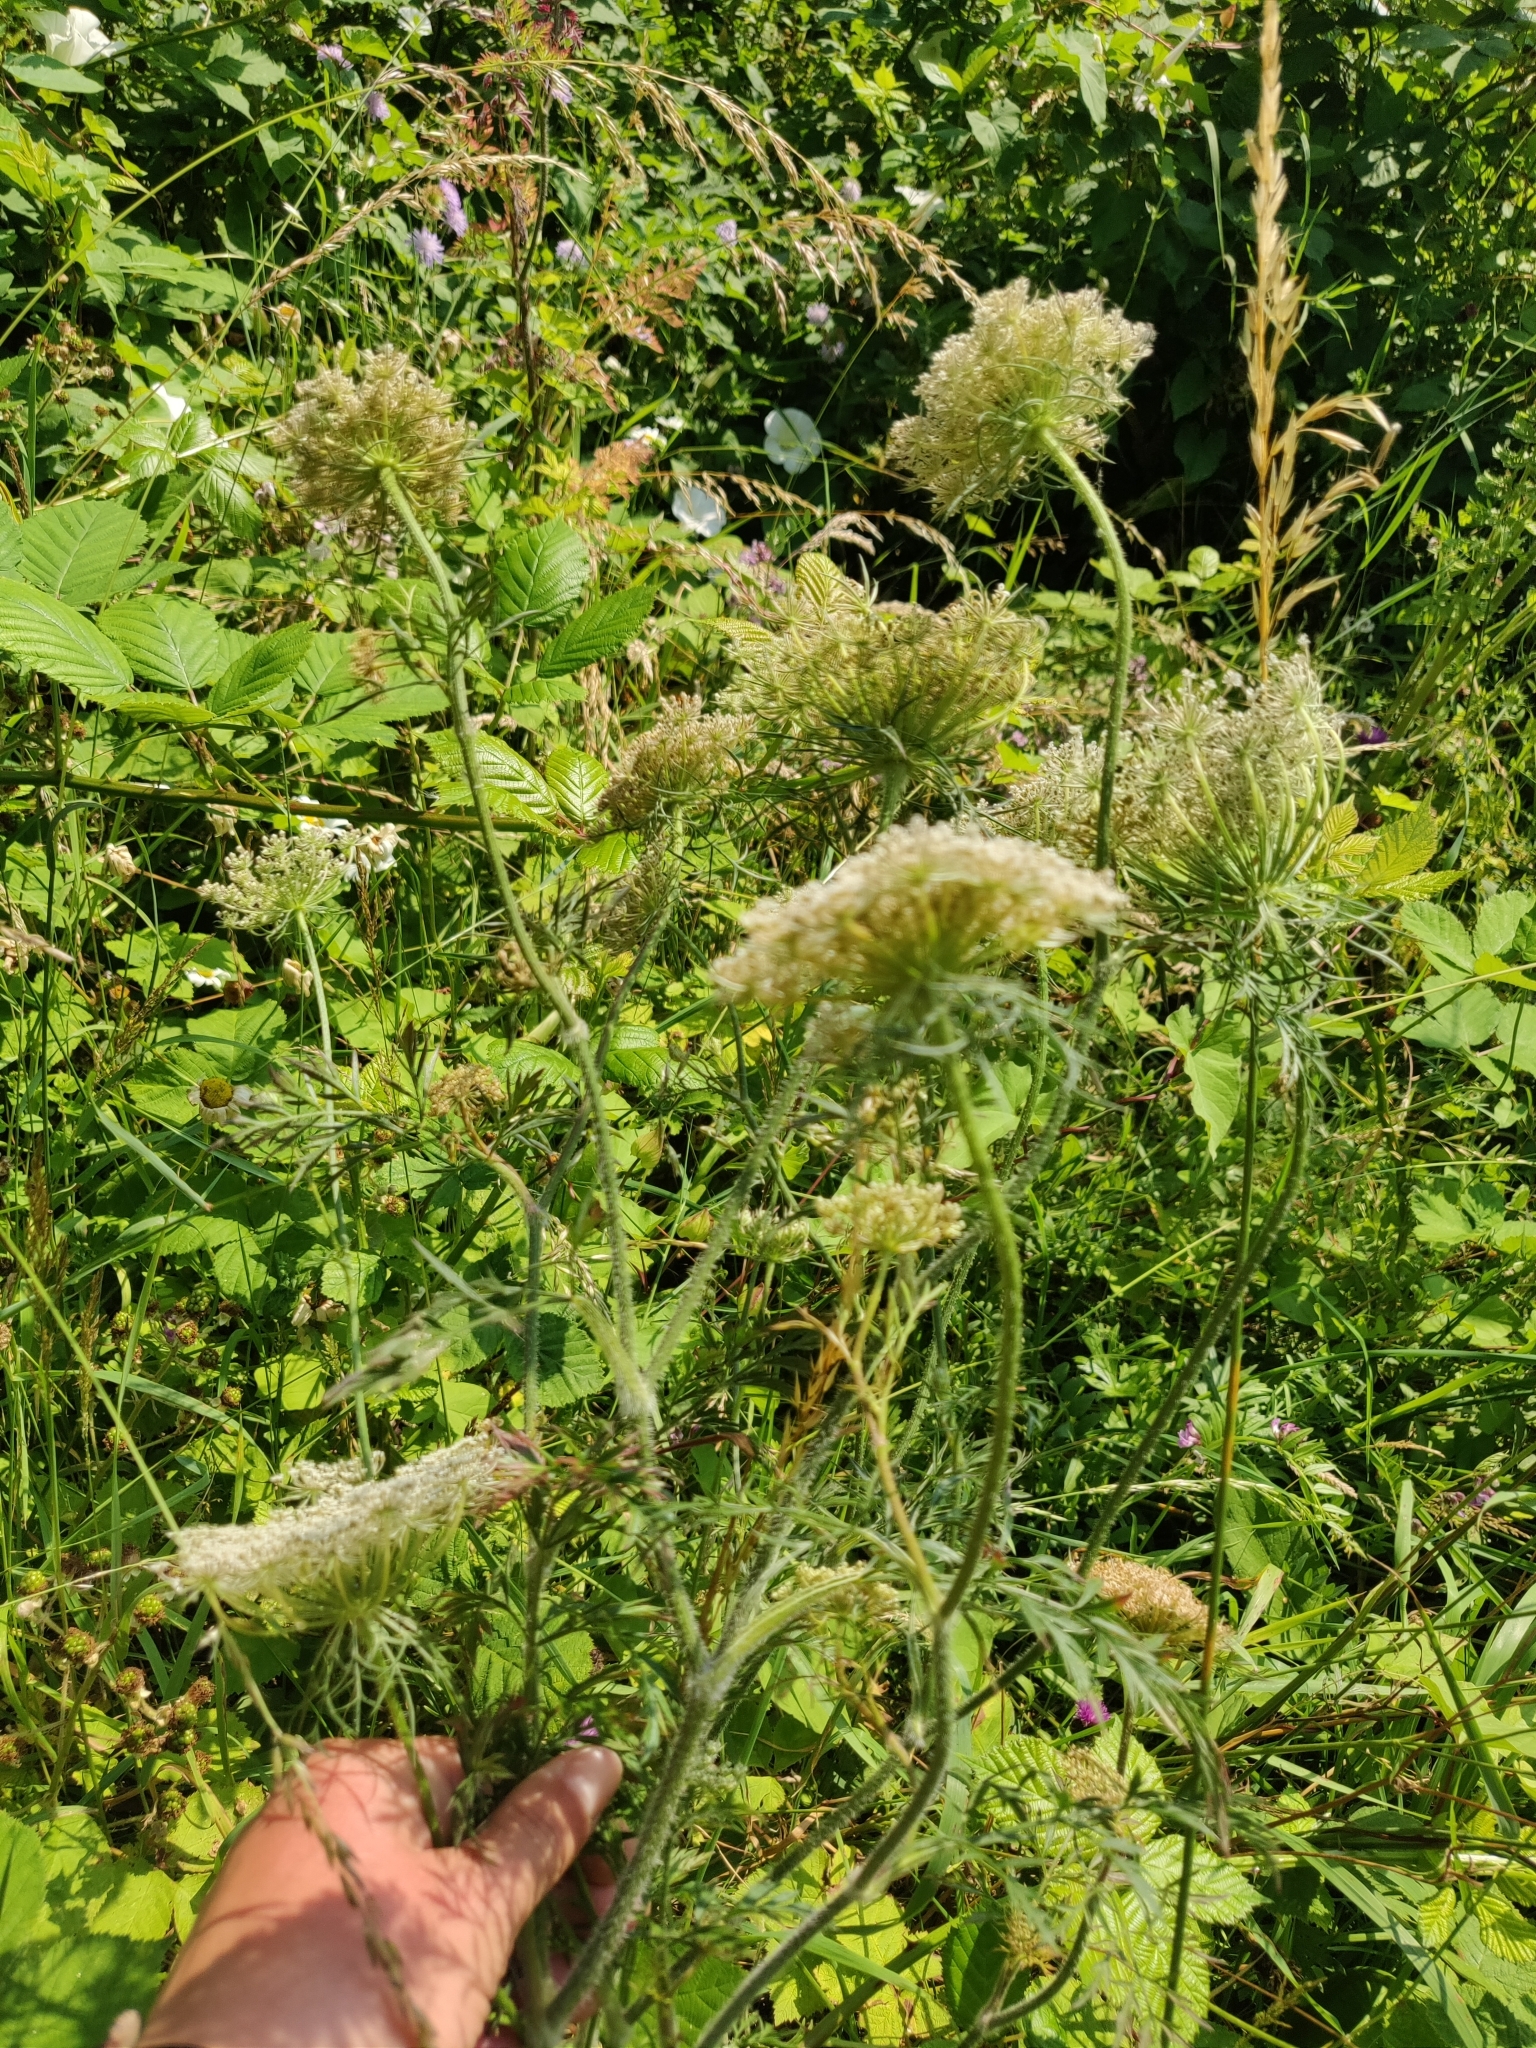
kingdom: Plantae
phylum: Tracheophyta
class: Magnoliopsida
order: Apiales
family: Apiaceae
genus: Daucus
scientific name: Daucus carota
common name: Wild carrot
